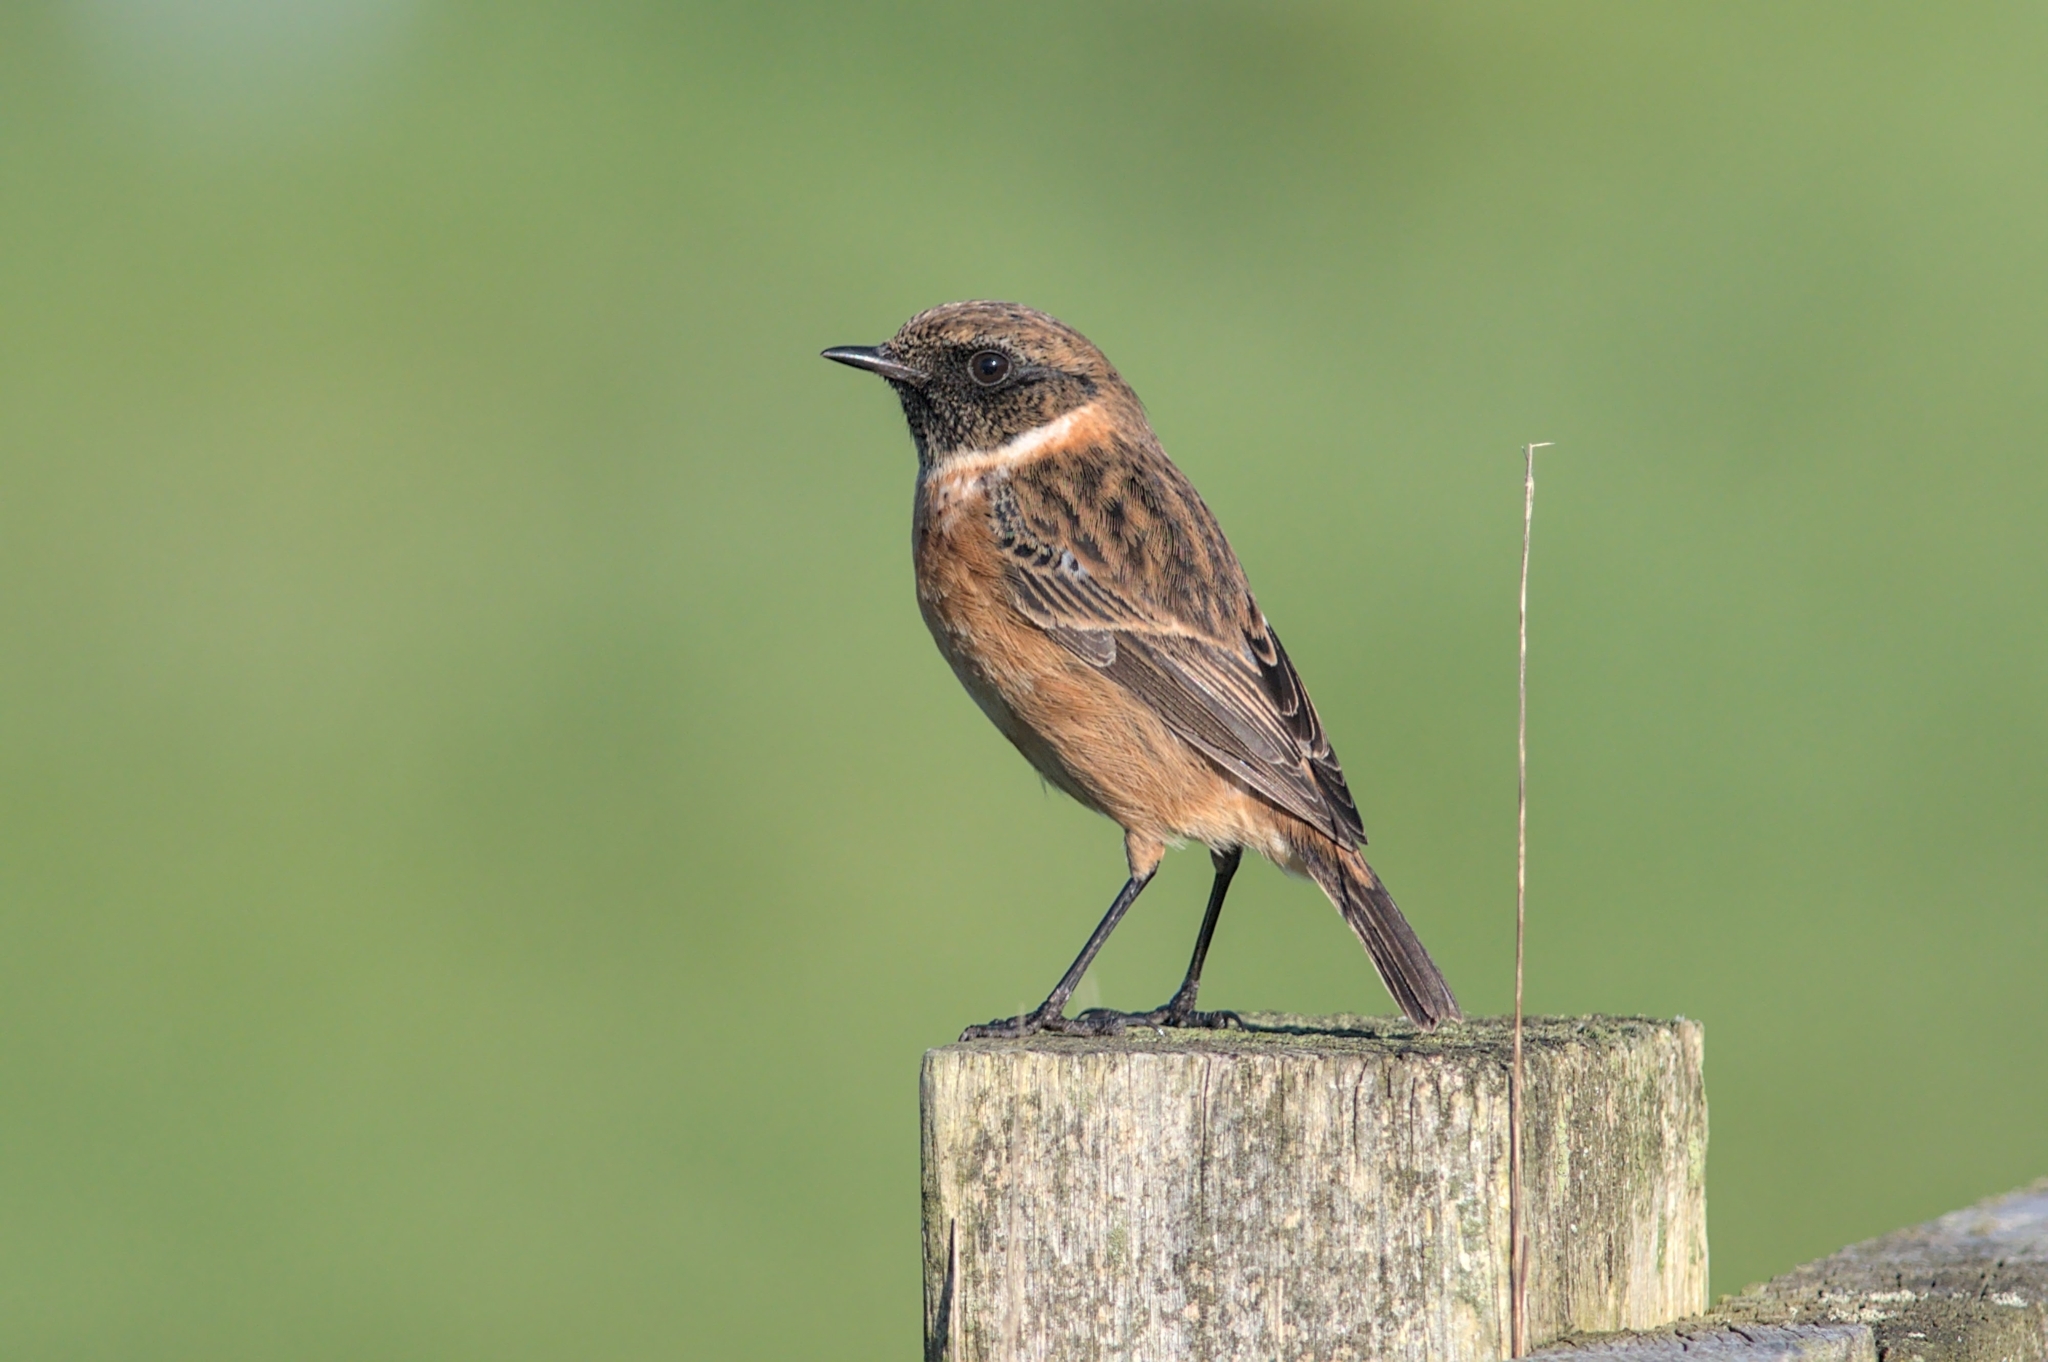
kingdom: Animalia
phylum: Chordata
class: Aves
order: Passeriformes
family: Muscicapidae
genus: Saxicola
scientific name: Saxicola rubicola
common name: European stonechat
